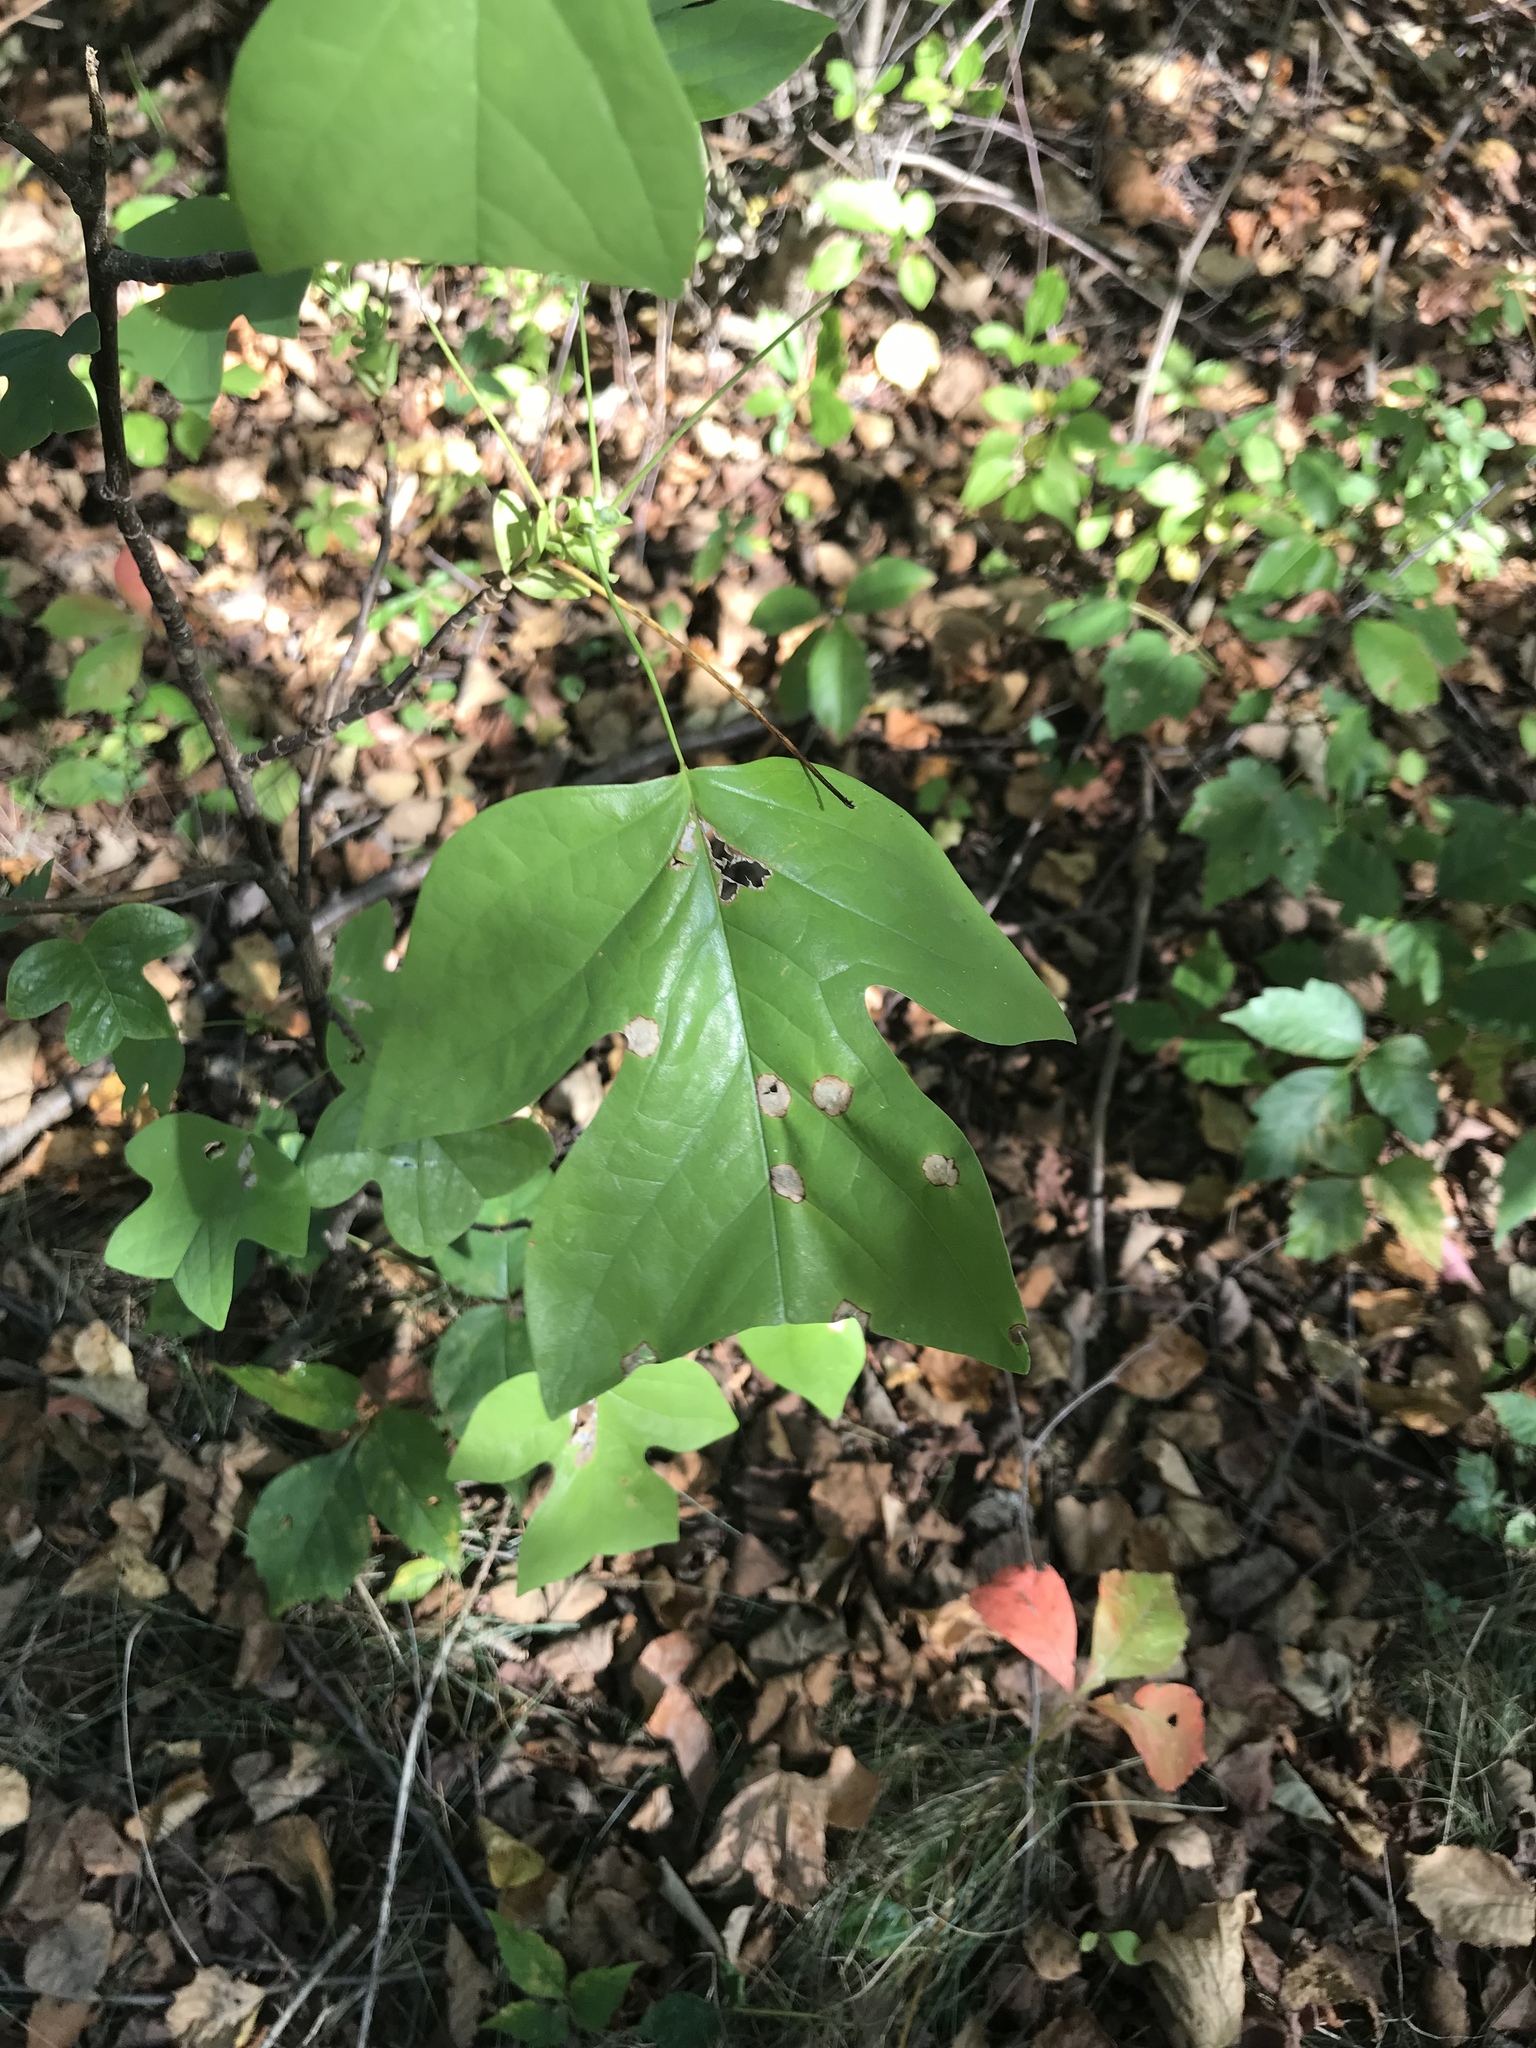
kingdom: Plantae
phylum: Tracheophyta
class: Magnoliopsida
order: Magnoliales
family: Magnoliaceae
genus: Liriodendron
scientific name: Liriodendron tulipifera
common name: Tulip tree
